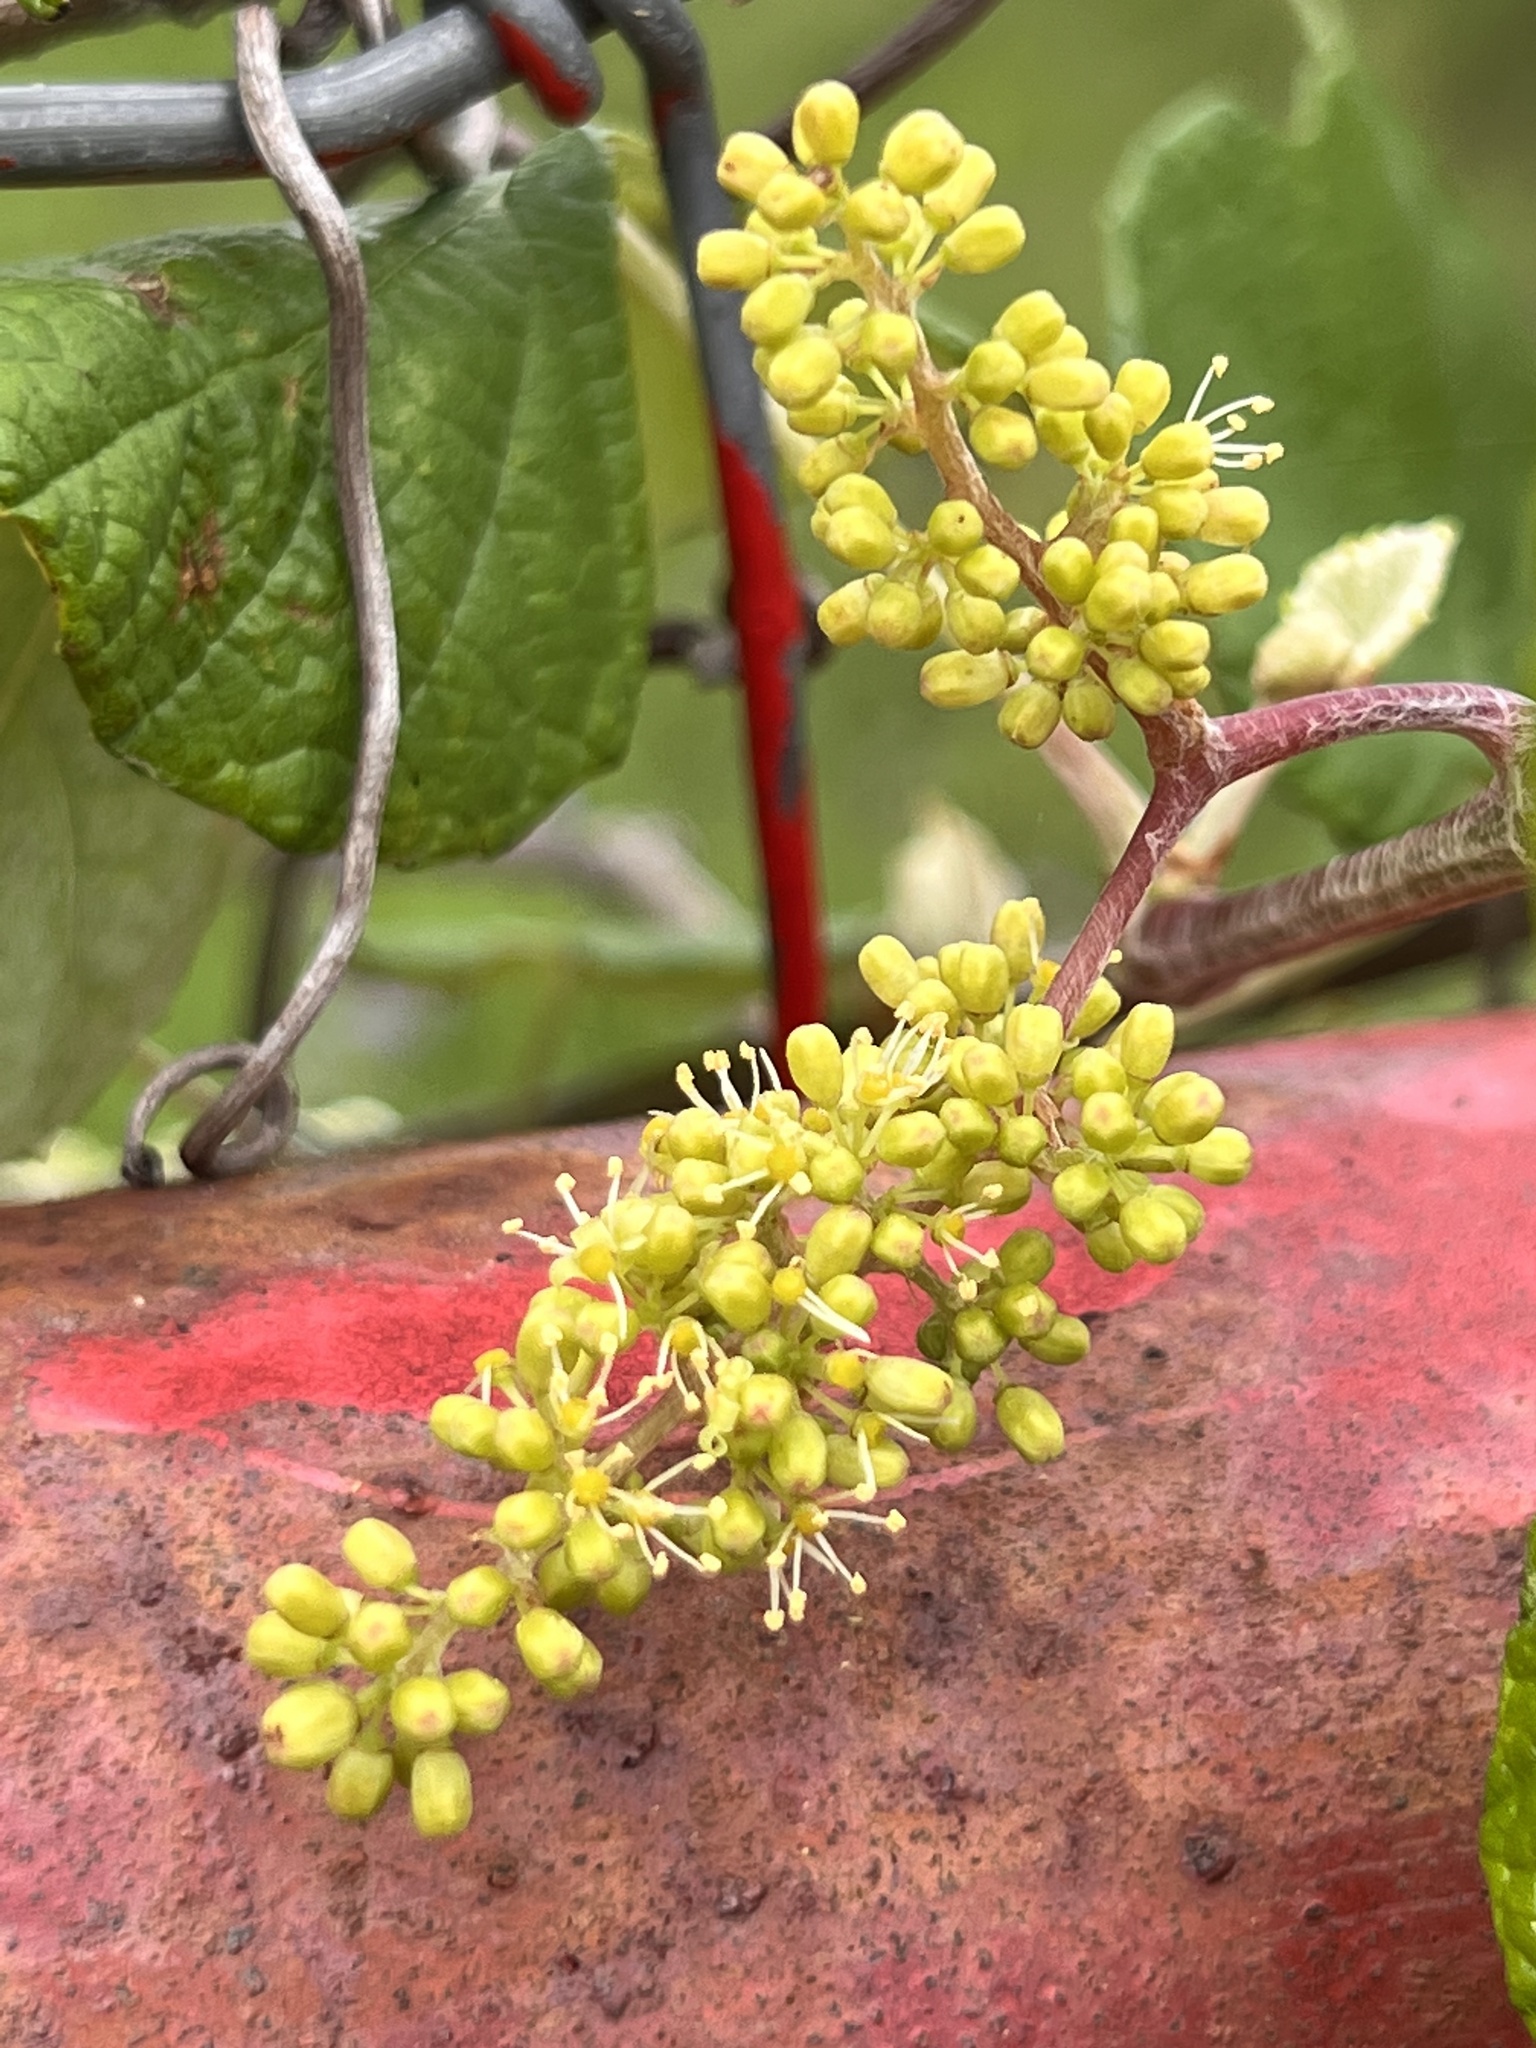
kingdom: Plantae
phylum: Tracheophyta
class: Magnoliopsida
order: Vitales
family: Vitaceae
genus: Vitis
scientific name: Vitis mustangensis
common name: Mustang grape
